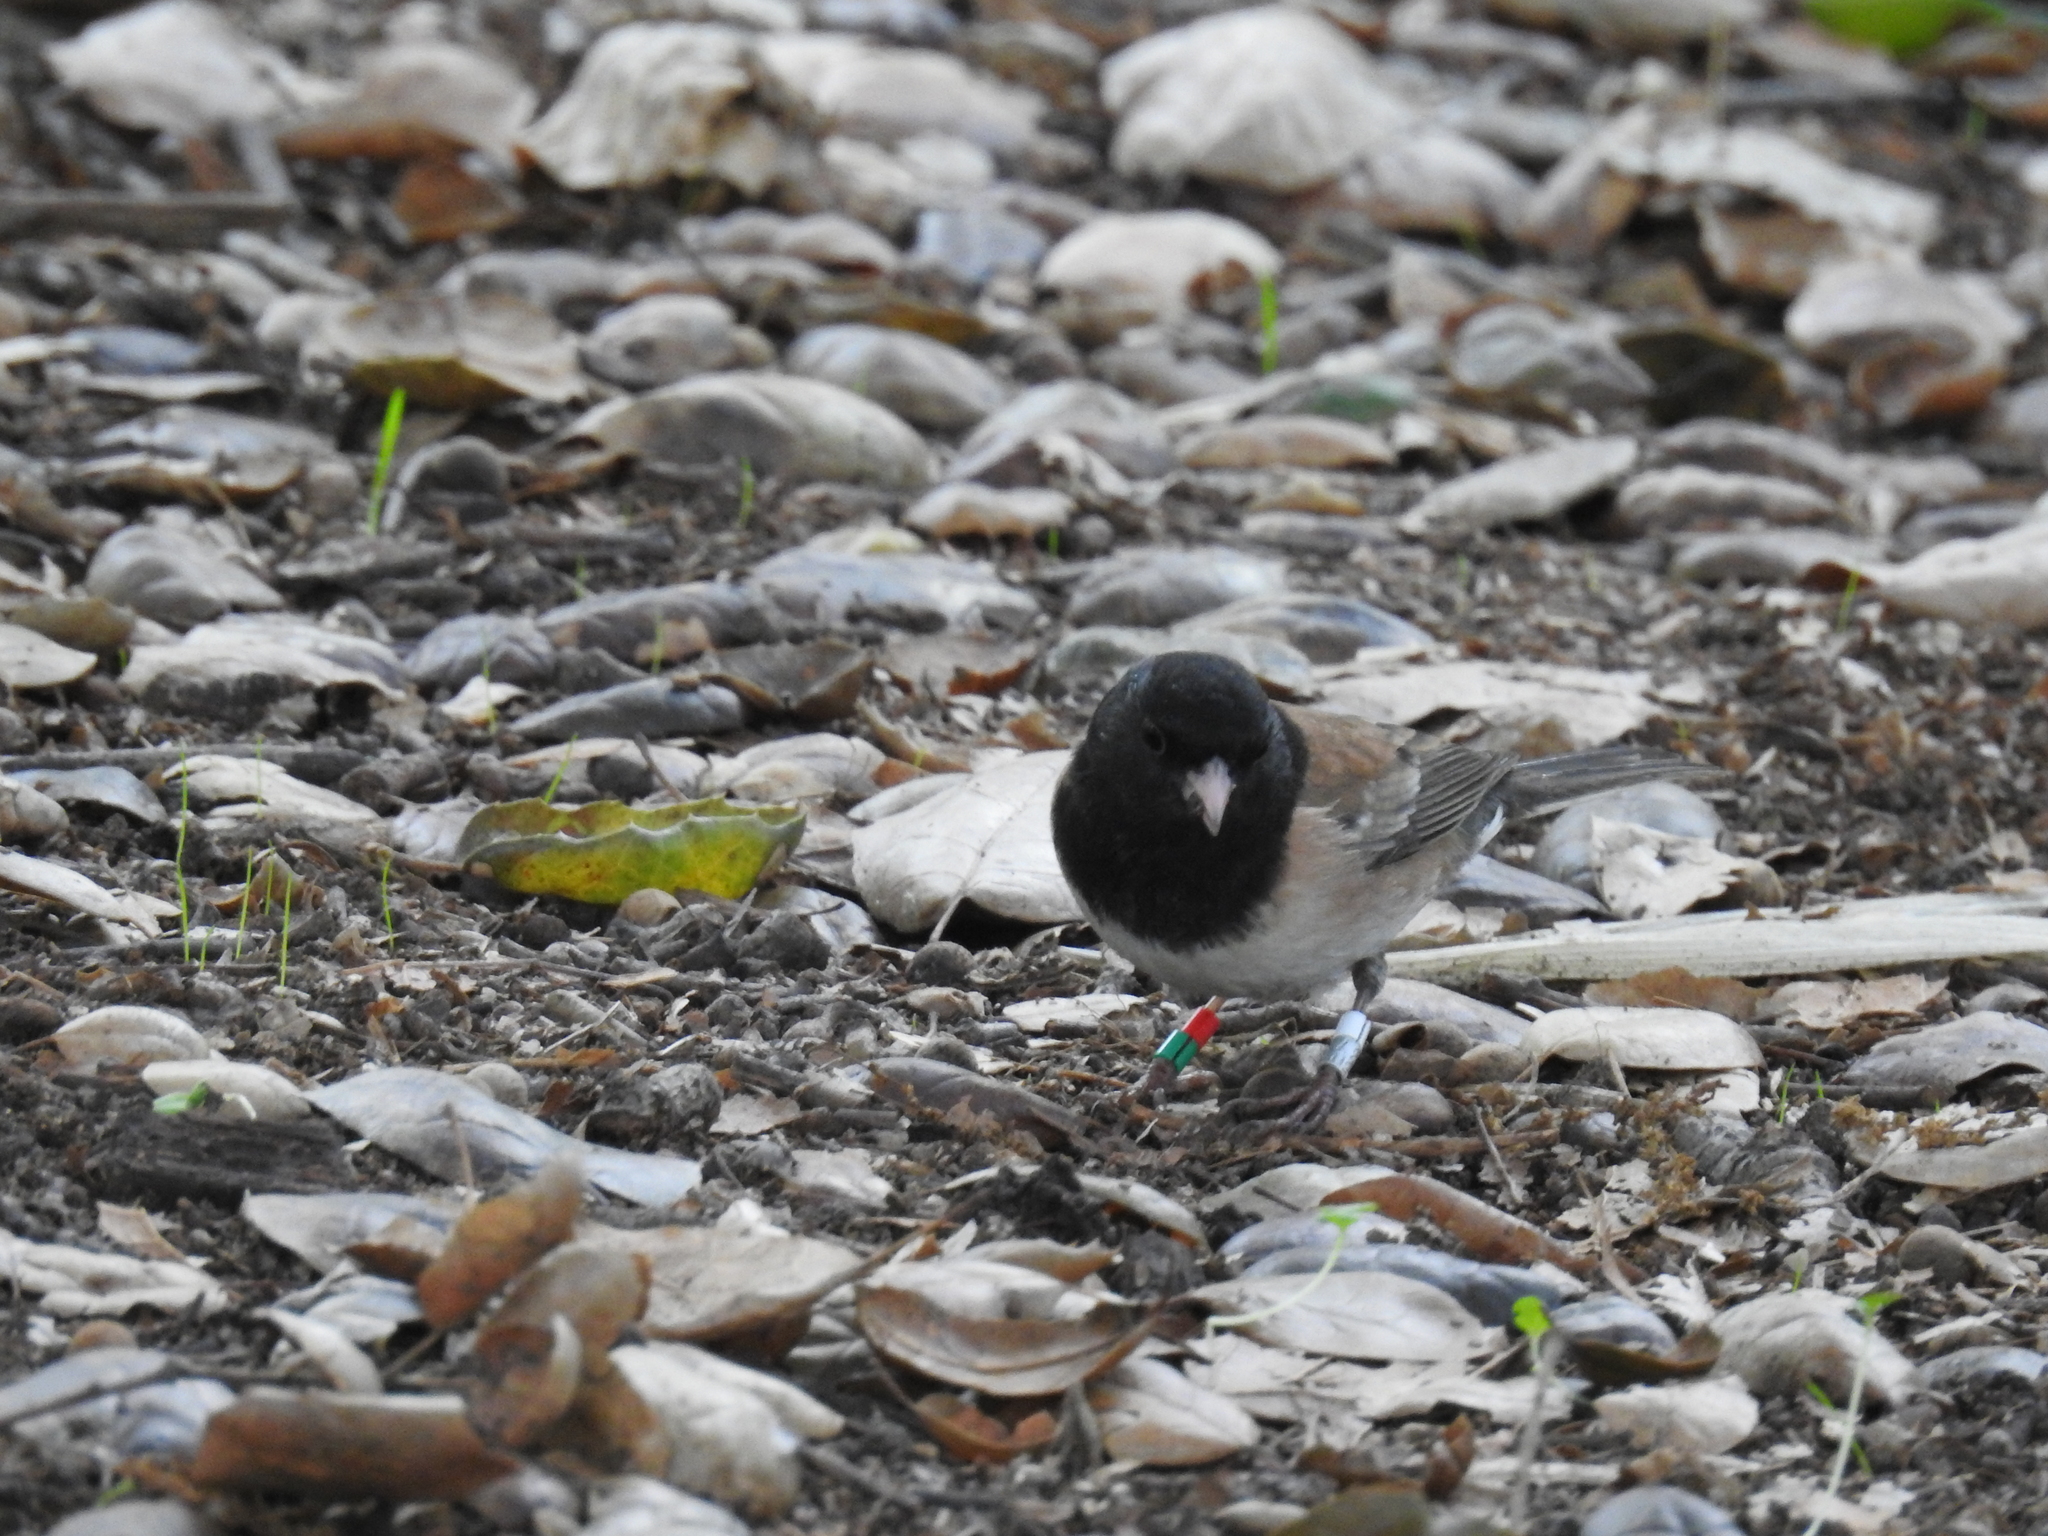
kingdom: Animalia
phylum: Chordata
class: Aves
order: Passeriformes
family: Passerellidae
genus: Junco
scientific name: Junco hyemalis
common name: Dark-eyed junco
